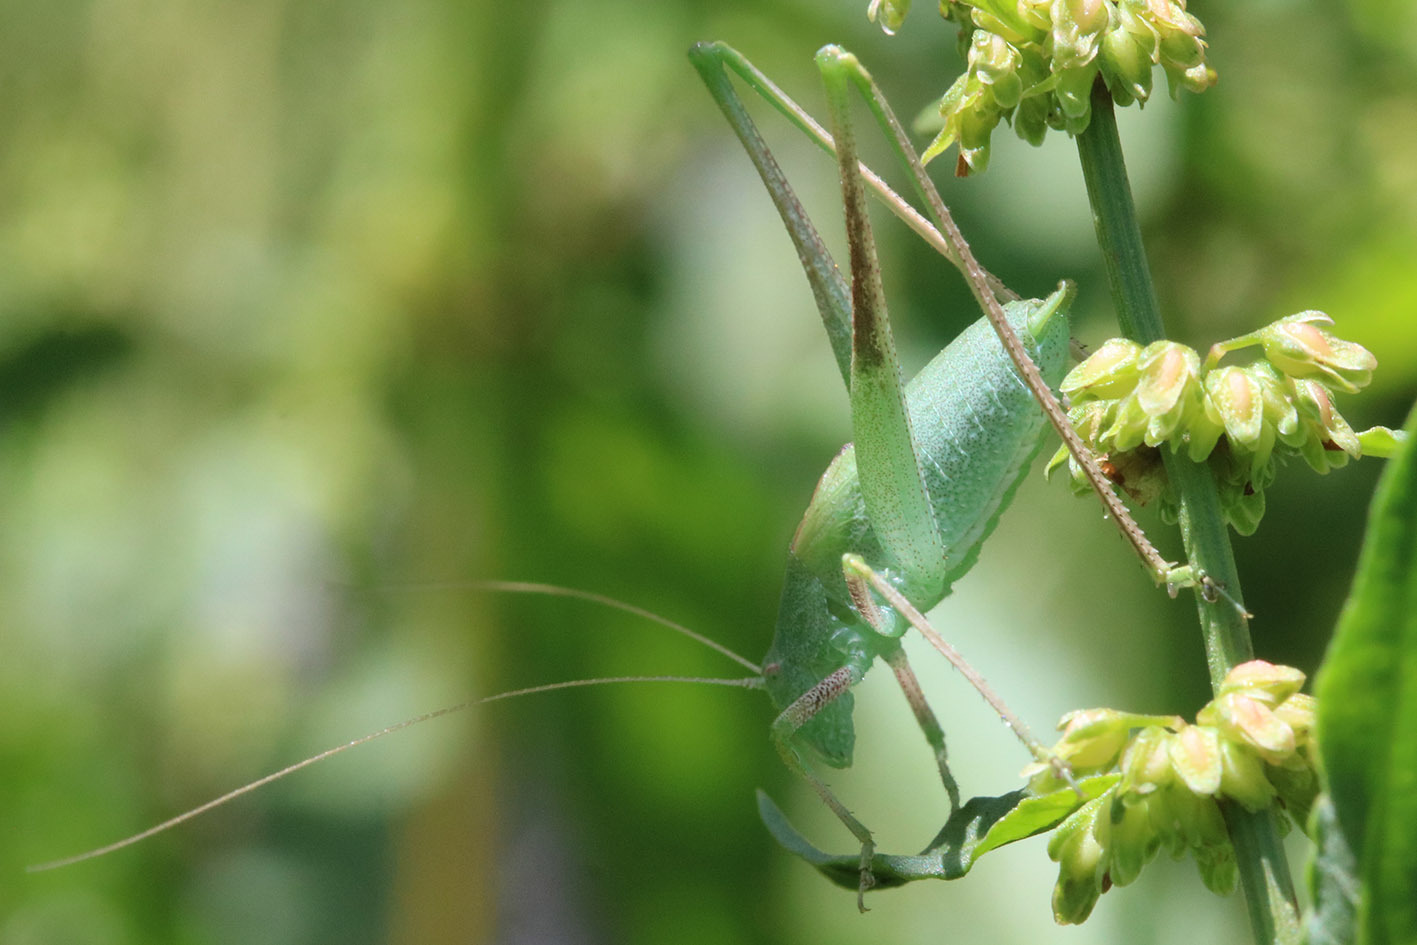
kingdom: Animalia
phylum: Arthropoda
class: Insecta
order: Orthoptera
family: Tettigoniidae
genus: Anisophya
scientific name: Anisophya
